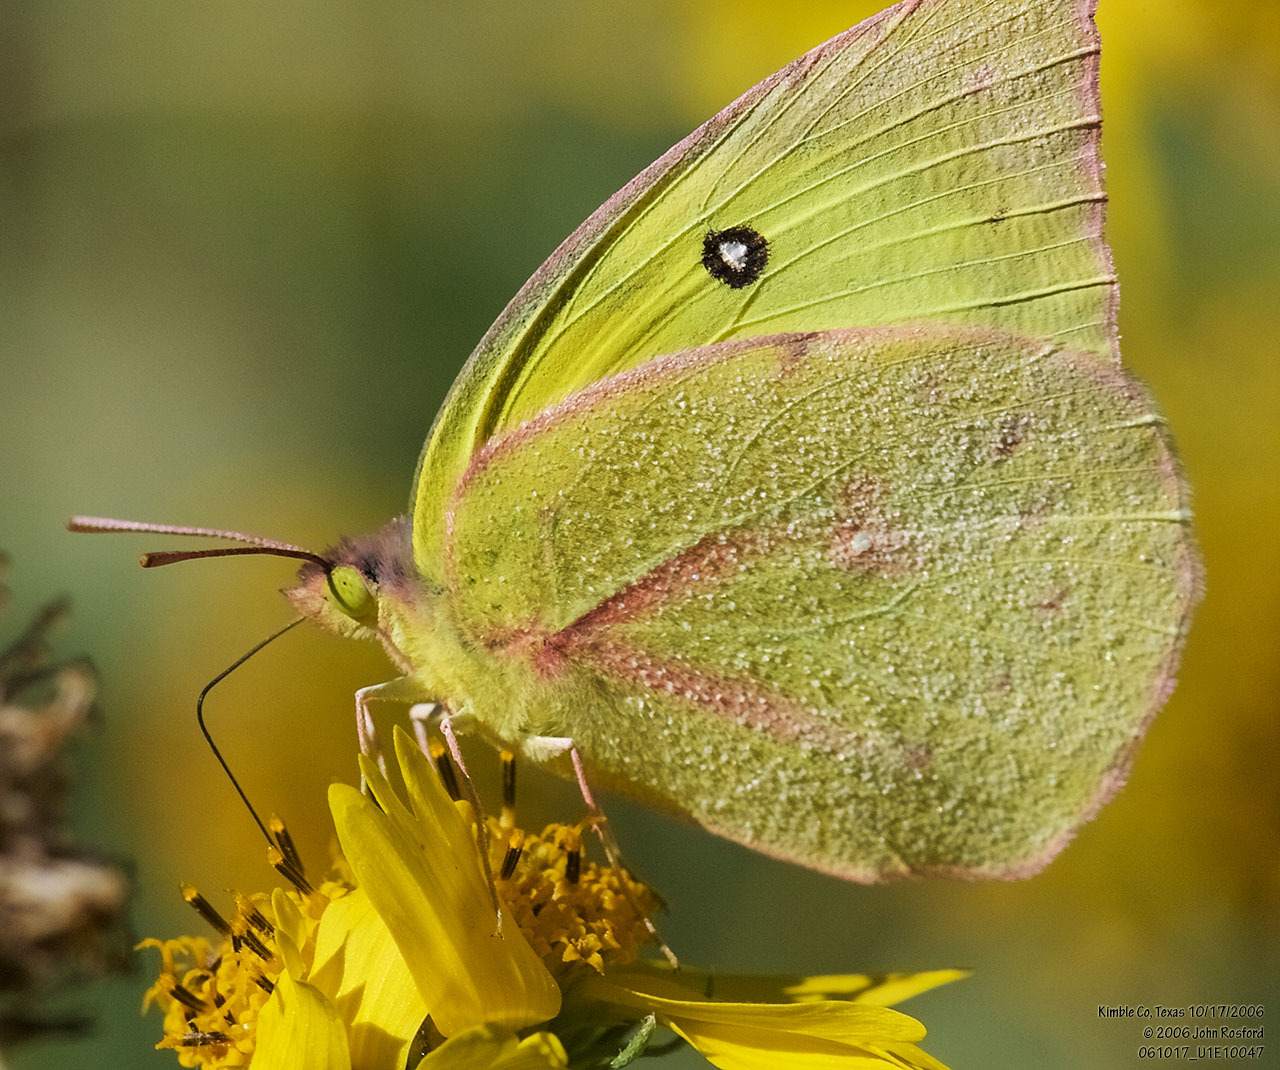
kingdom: Animalia
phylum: Arthropoda
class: Insecta
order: Lepidoptera
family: Pieridae
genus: Zerene
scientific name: Zerene cesonia
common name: Southern dogface
